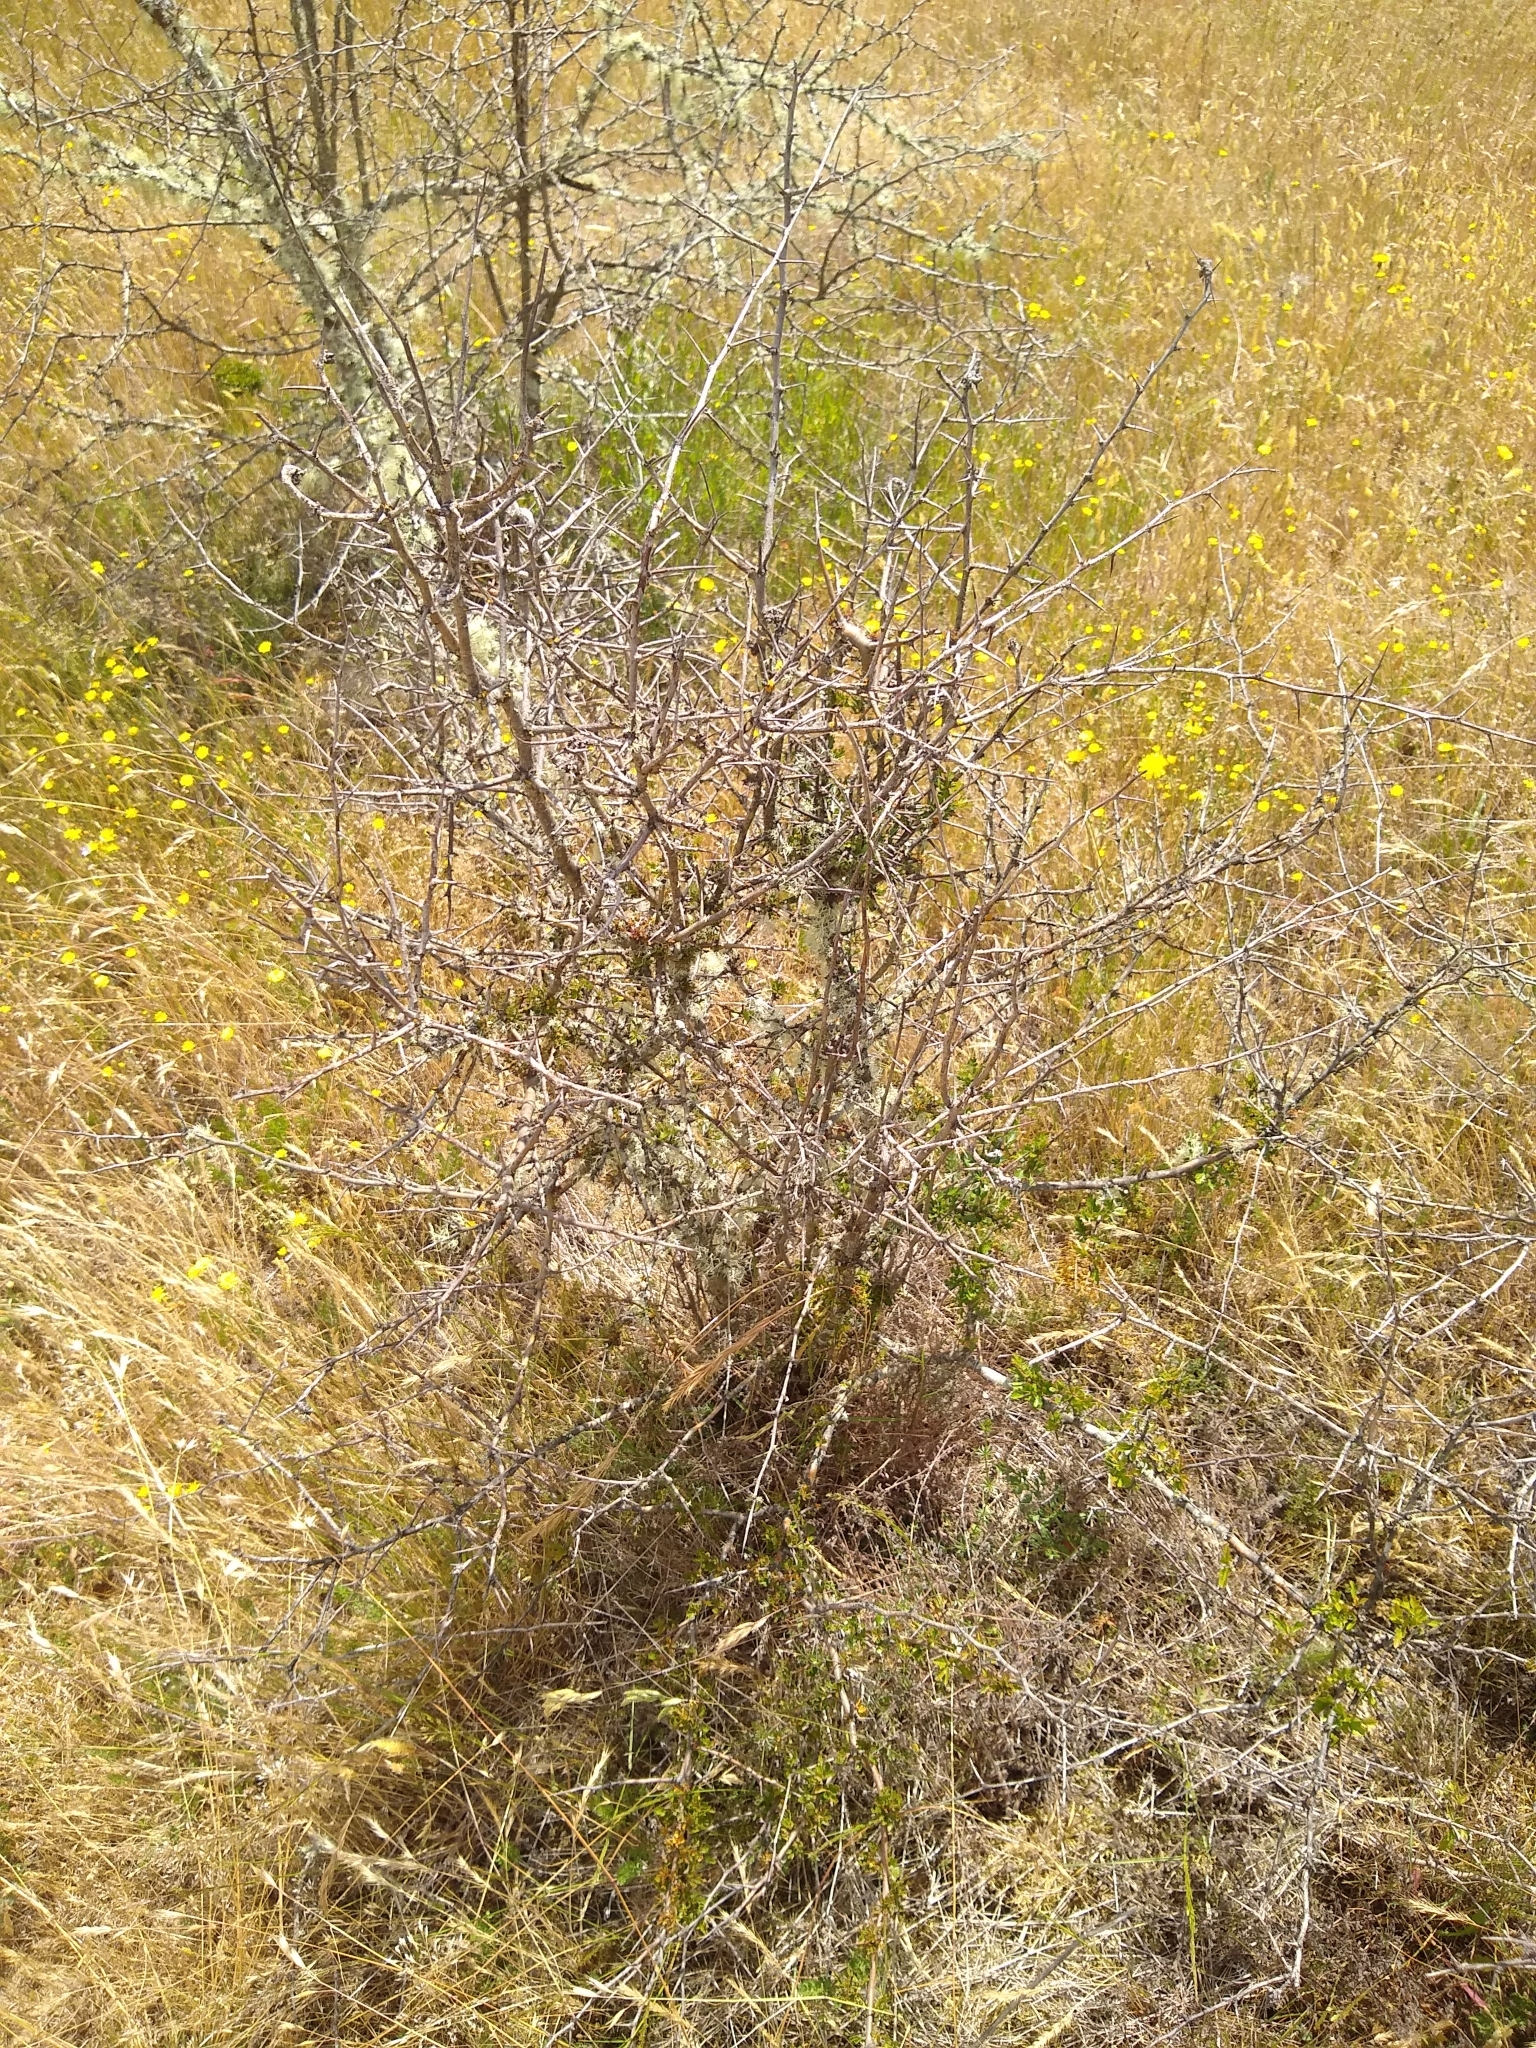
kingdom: Plantae
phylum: Tracheophyta
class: Magnoliopsida
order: Rosales
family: Rosaceae
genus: Crataegus
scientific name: Crataegus monogyna
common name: Hawthorn
